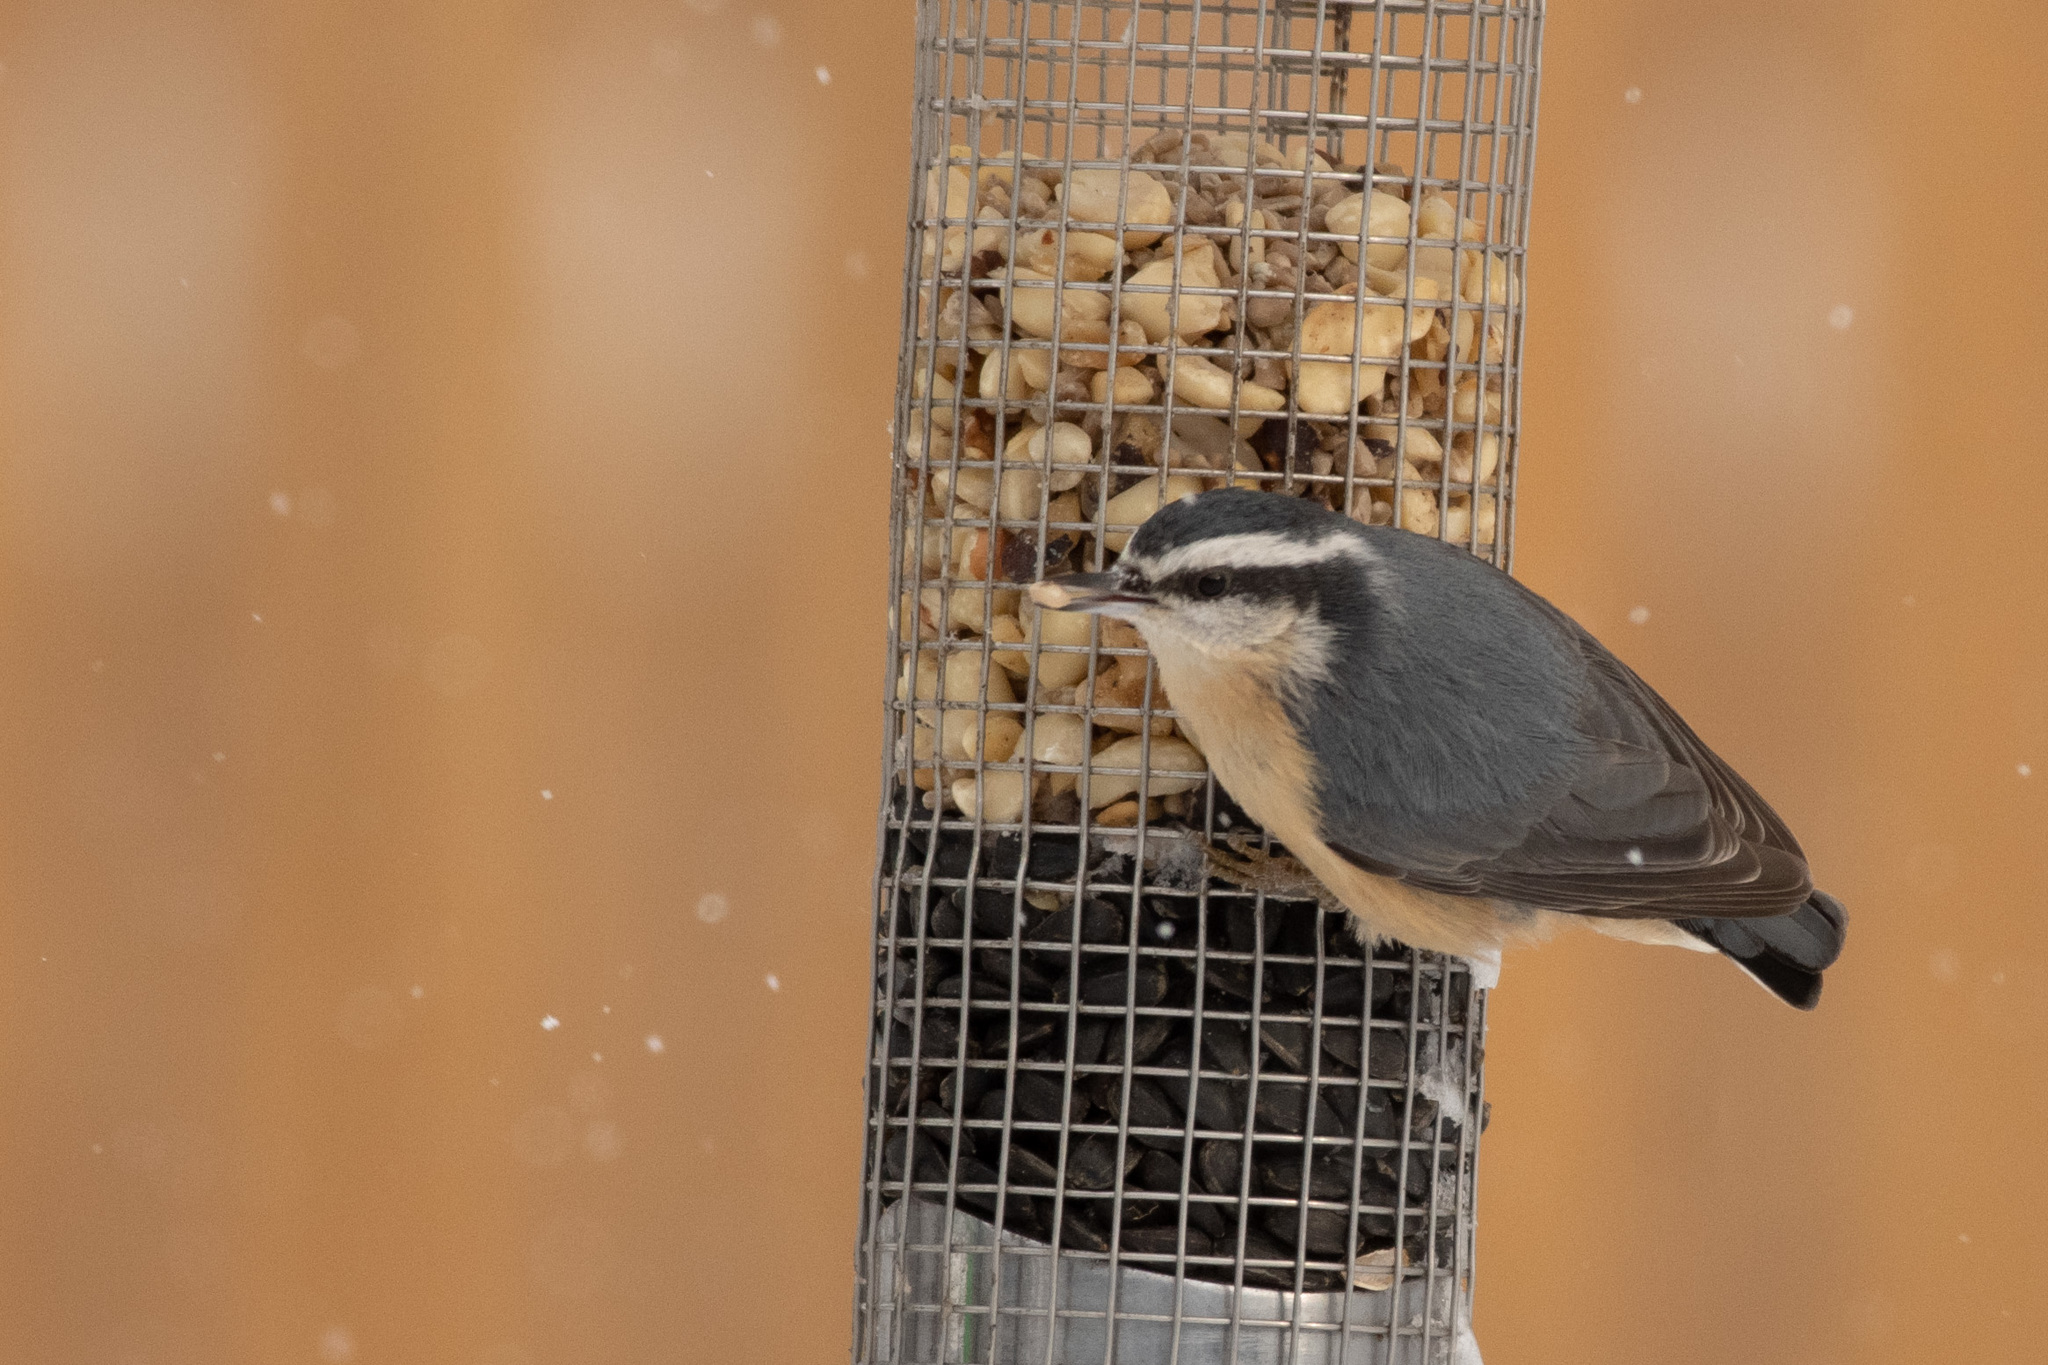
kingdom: Animalia
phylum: Chordata
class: Aves
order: Passeriformes
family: Sittidae
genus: Sitta
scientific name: Sitta canadensis
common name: Red-breasted nuthatch
